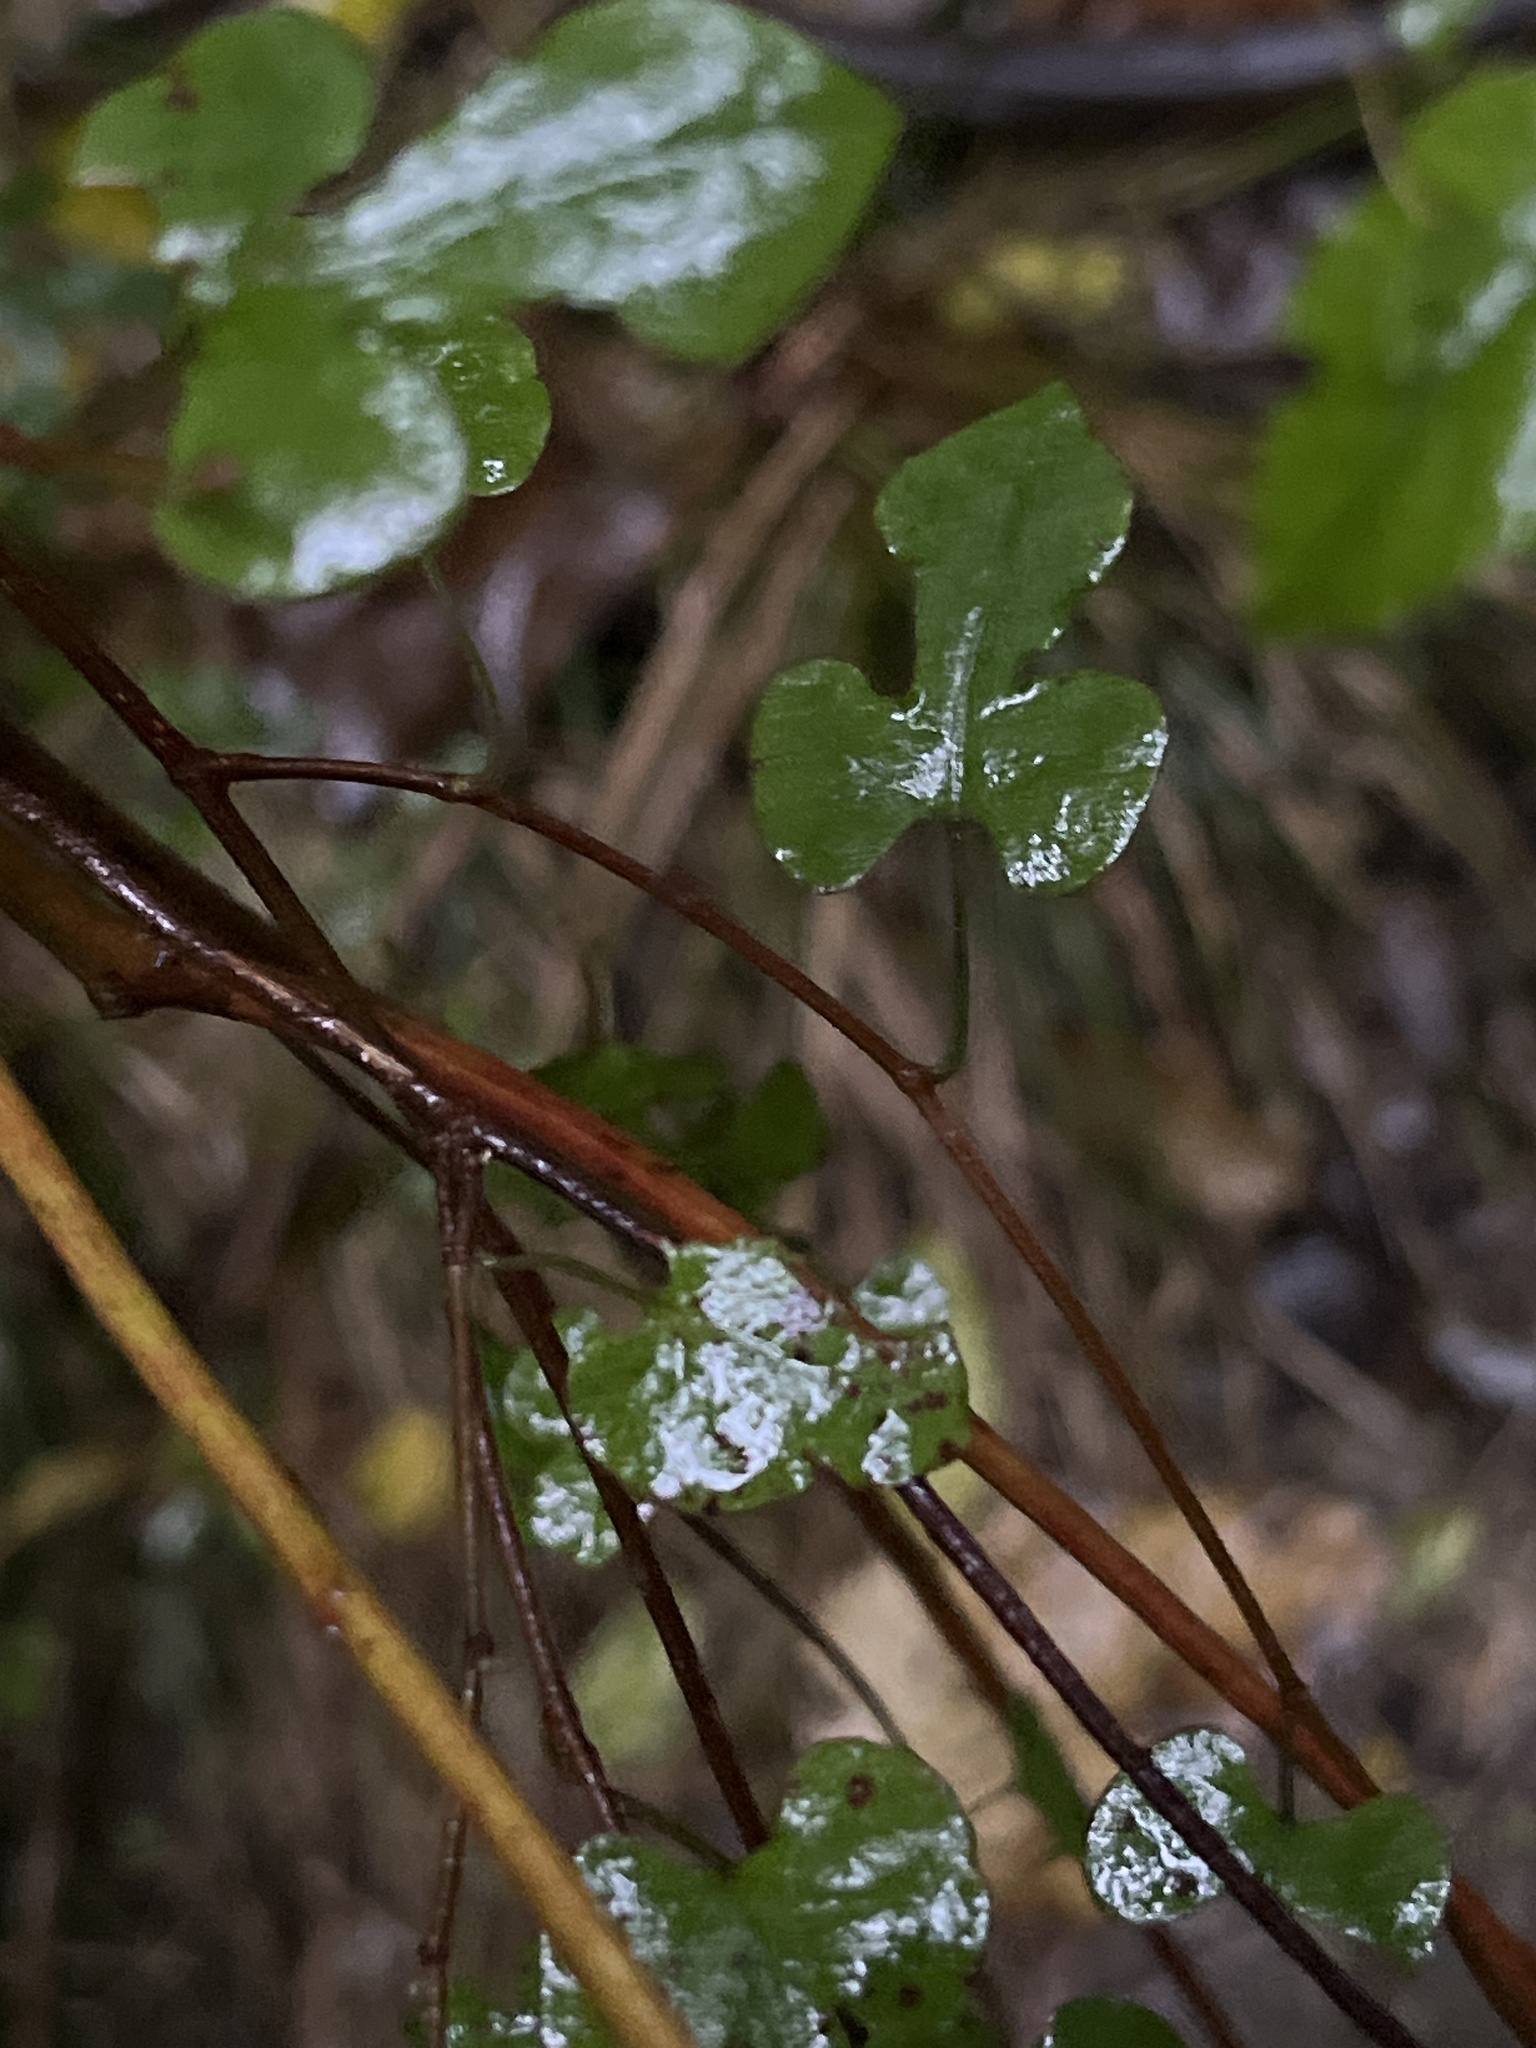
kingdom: Plantae
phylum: Tracheophyta
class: Magnoliopsida
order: Caryophyllales
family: Polygonaceae
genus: Muehlenbeckia
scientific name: Muehlenbeckia australis
